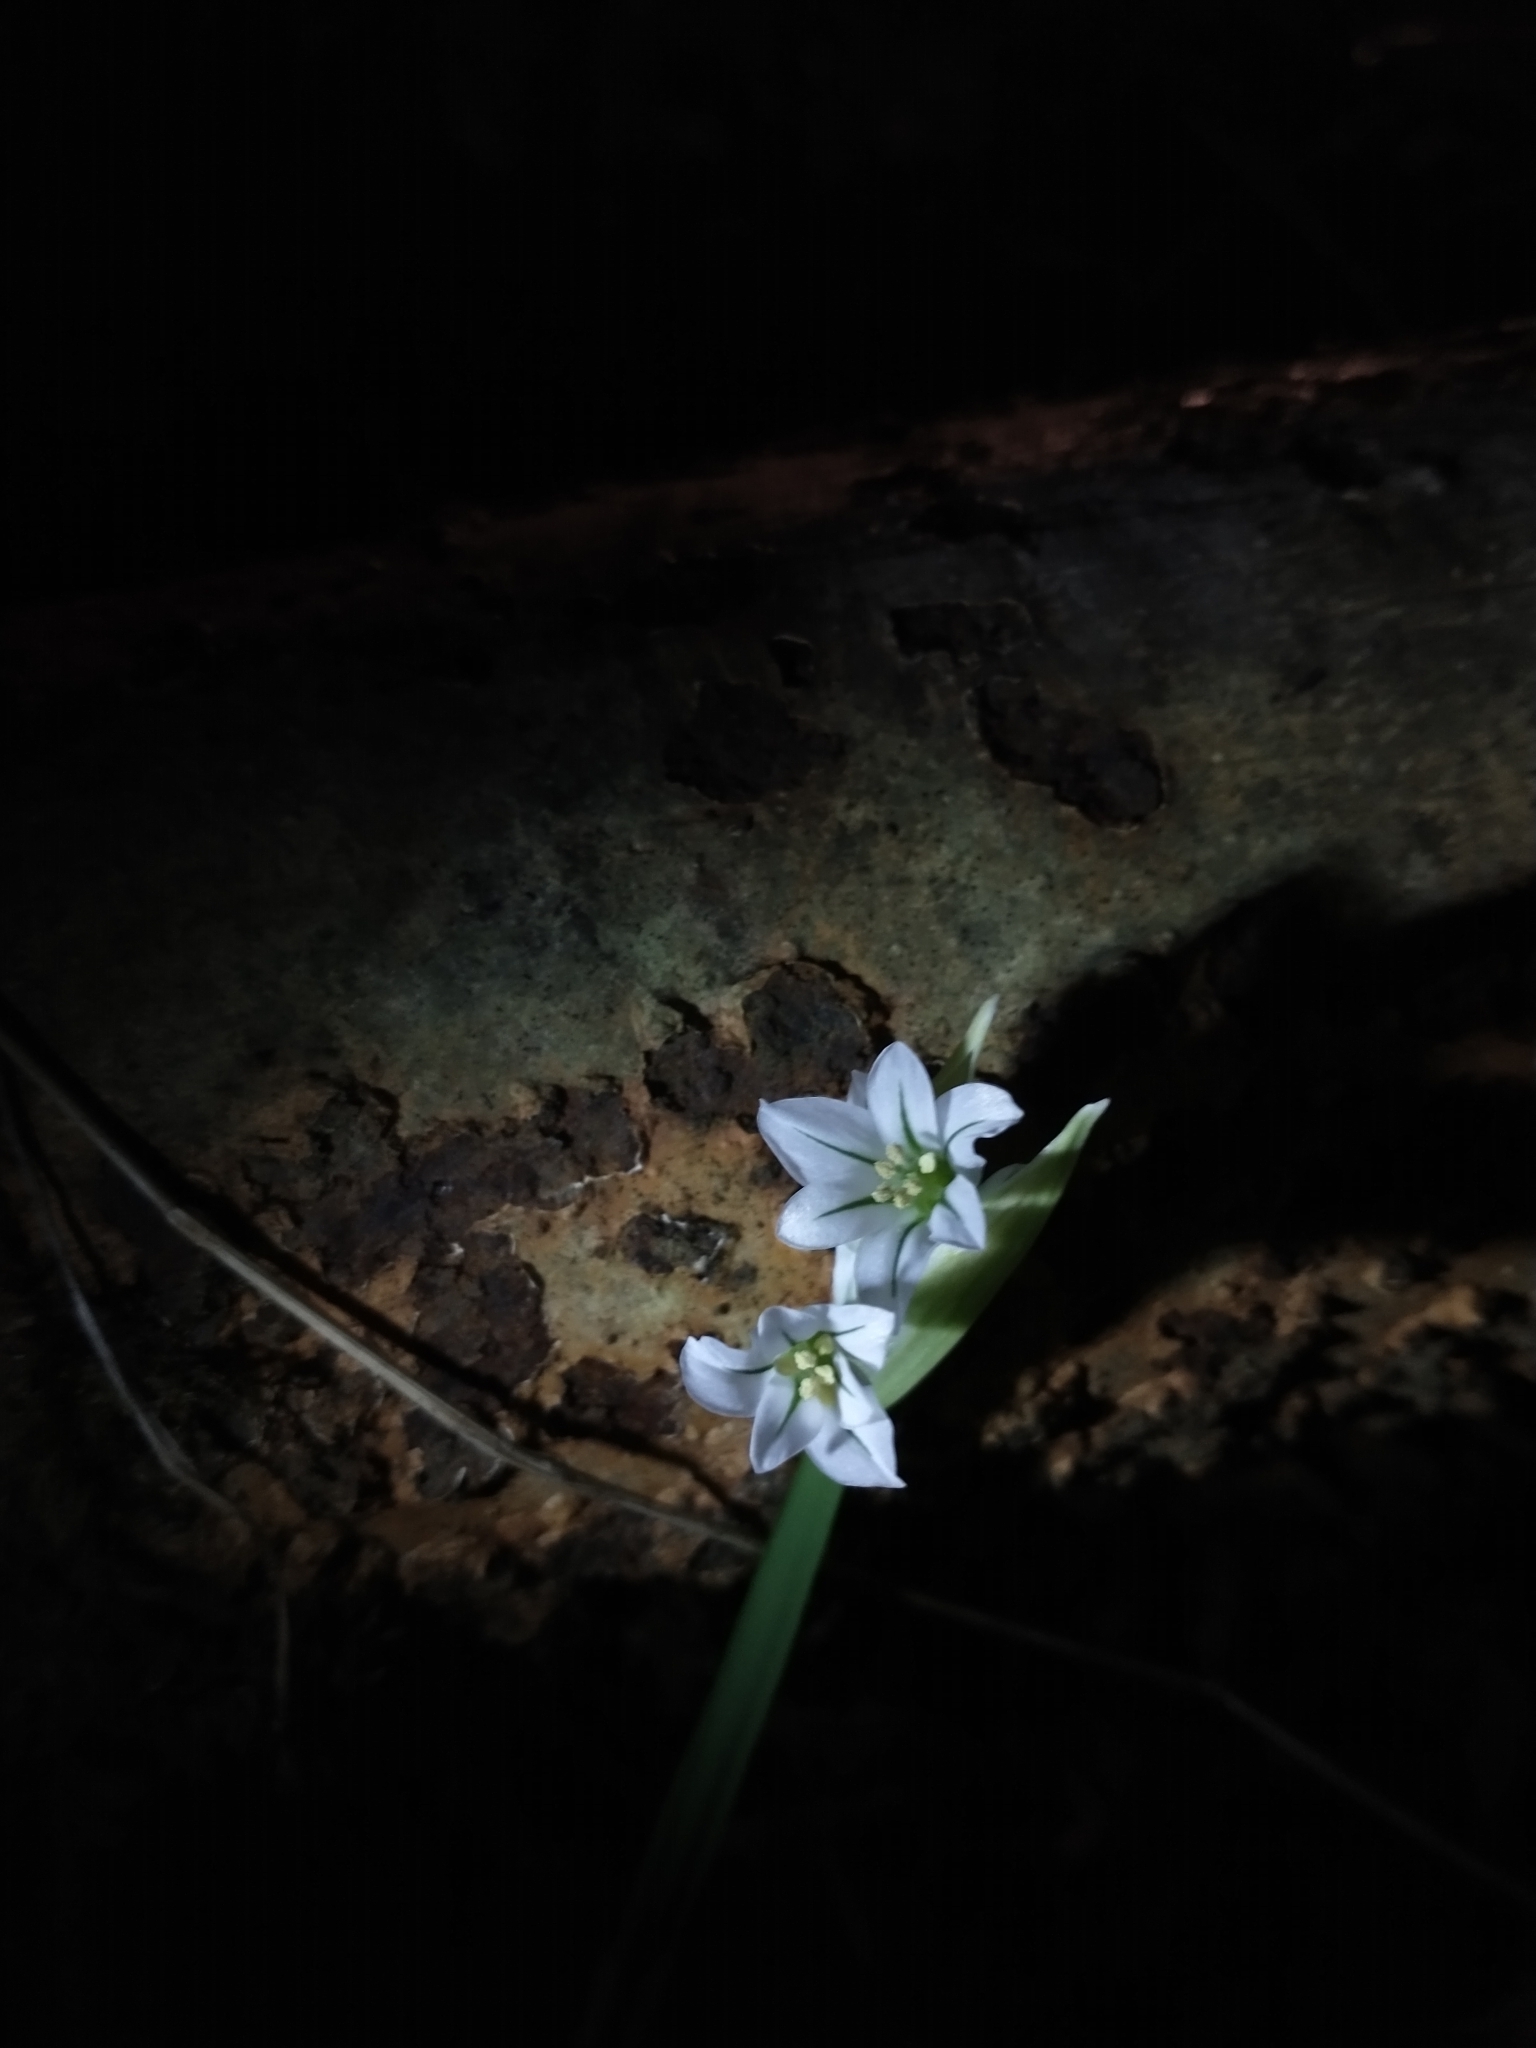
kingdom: Plantae
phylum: Tracheophyta
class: Liliopsida
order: Asparagales
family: Amaryllidaceae
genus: Allium
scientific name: Allium triquetrum
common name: Three-cornered garlic
